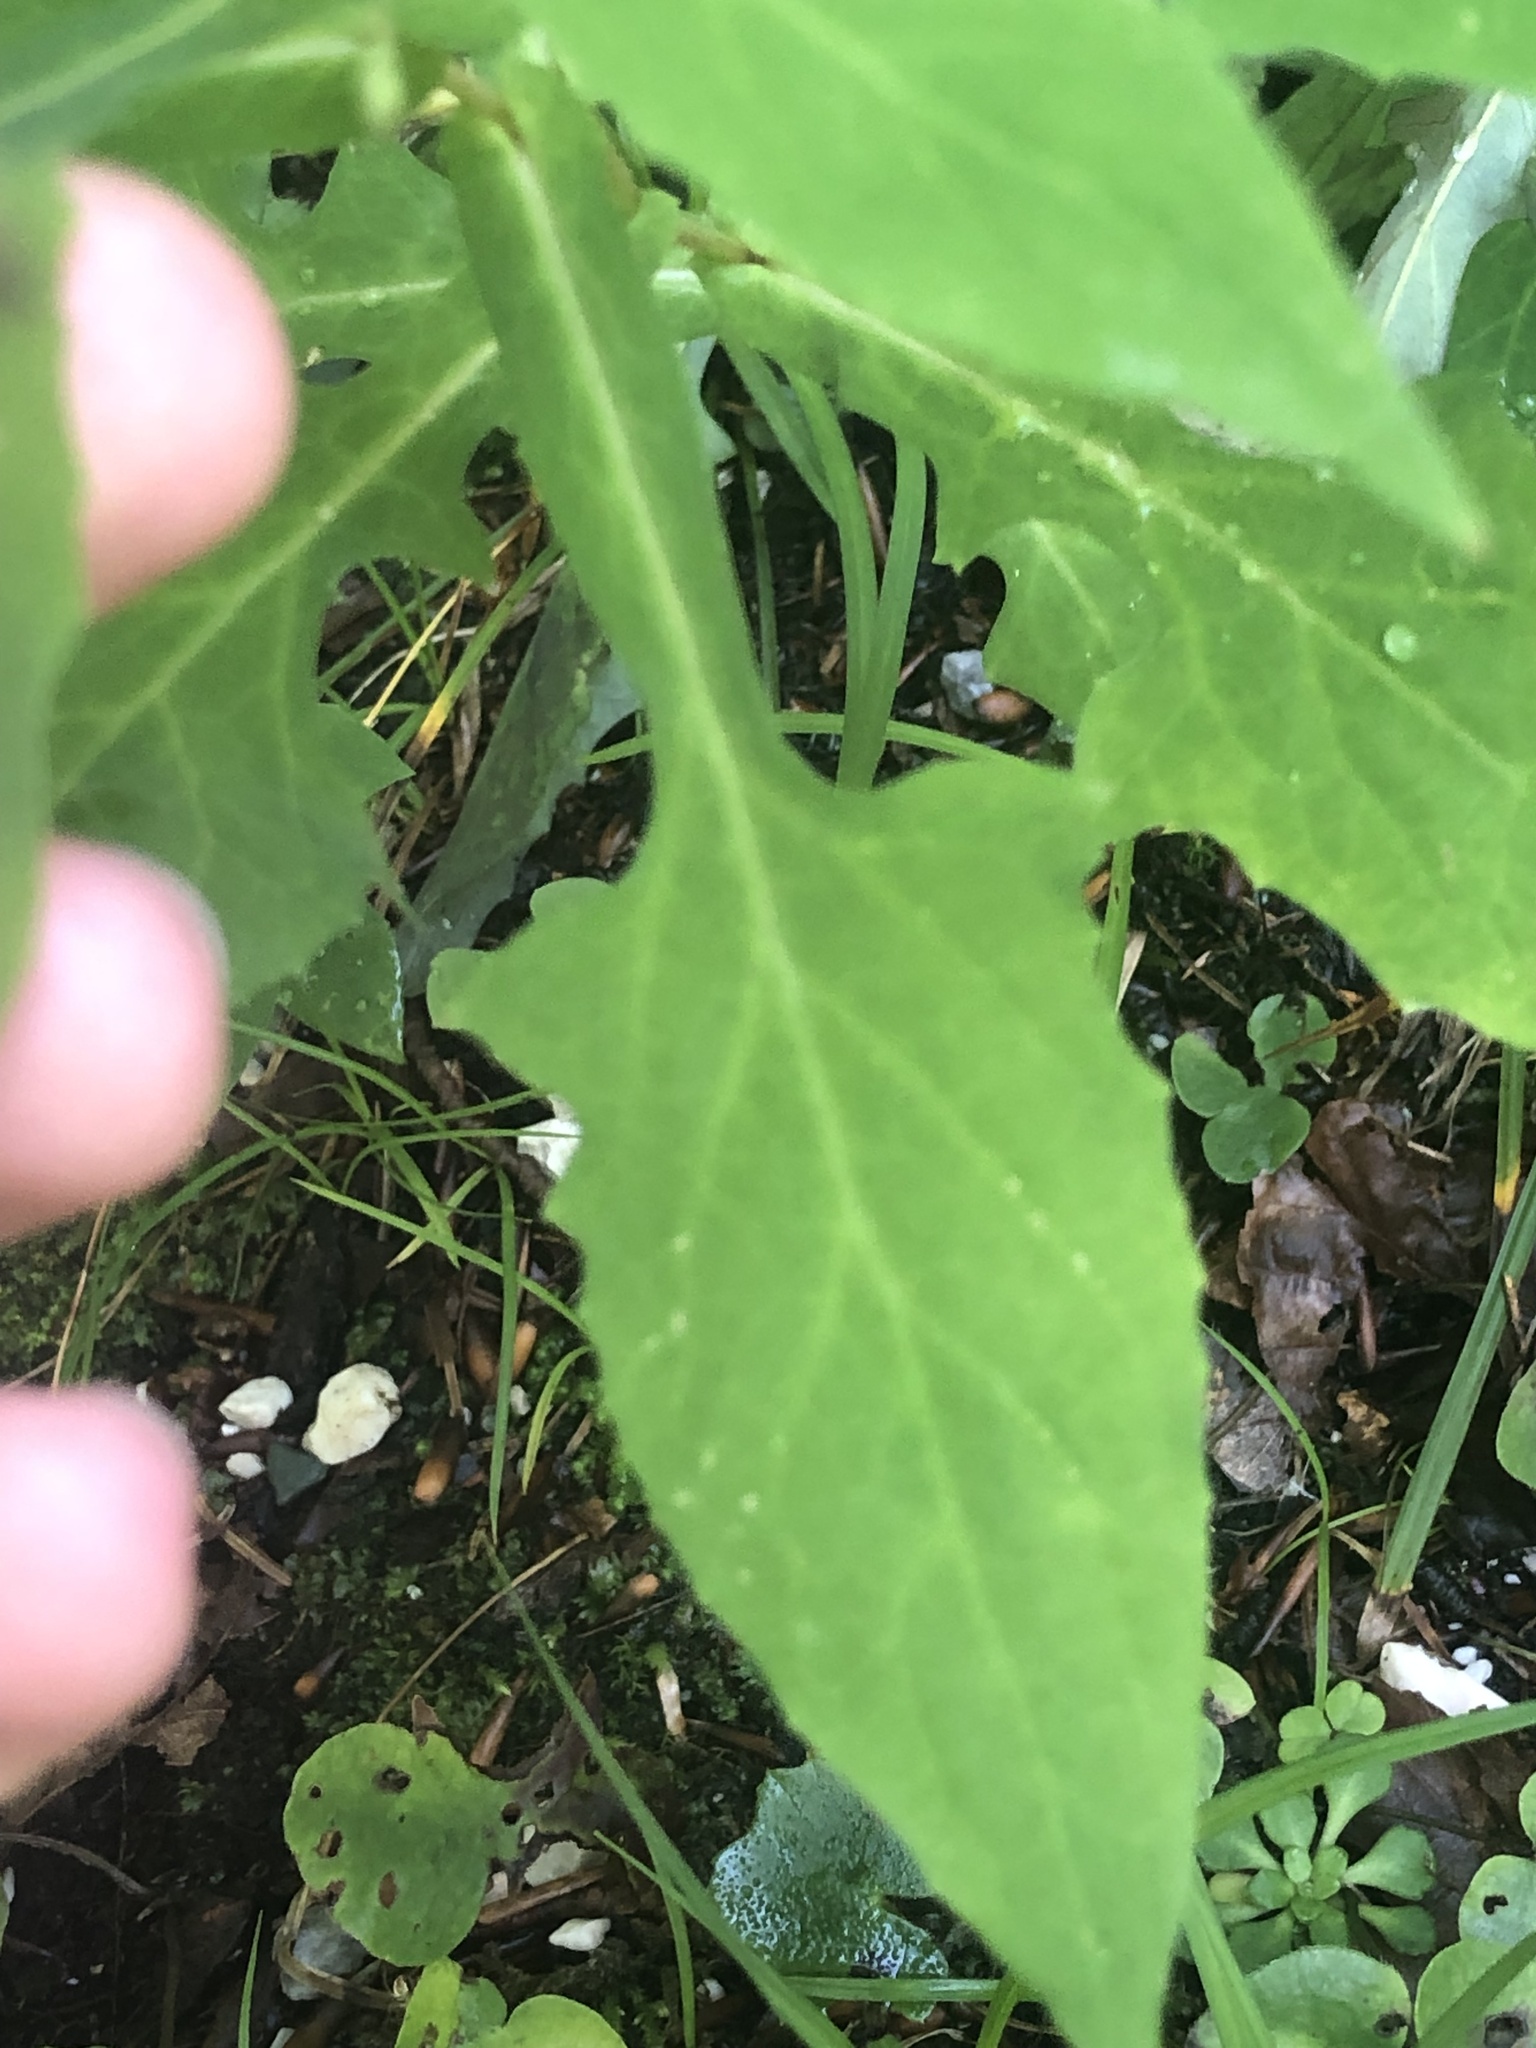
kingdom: Plantae
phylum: Tracheophyta
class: Magnoliopsida
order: Asterales
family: Asteraceae
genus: Prenanthes
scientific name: Prenanthes purpurea
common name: Purple lettuce
